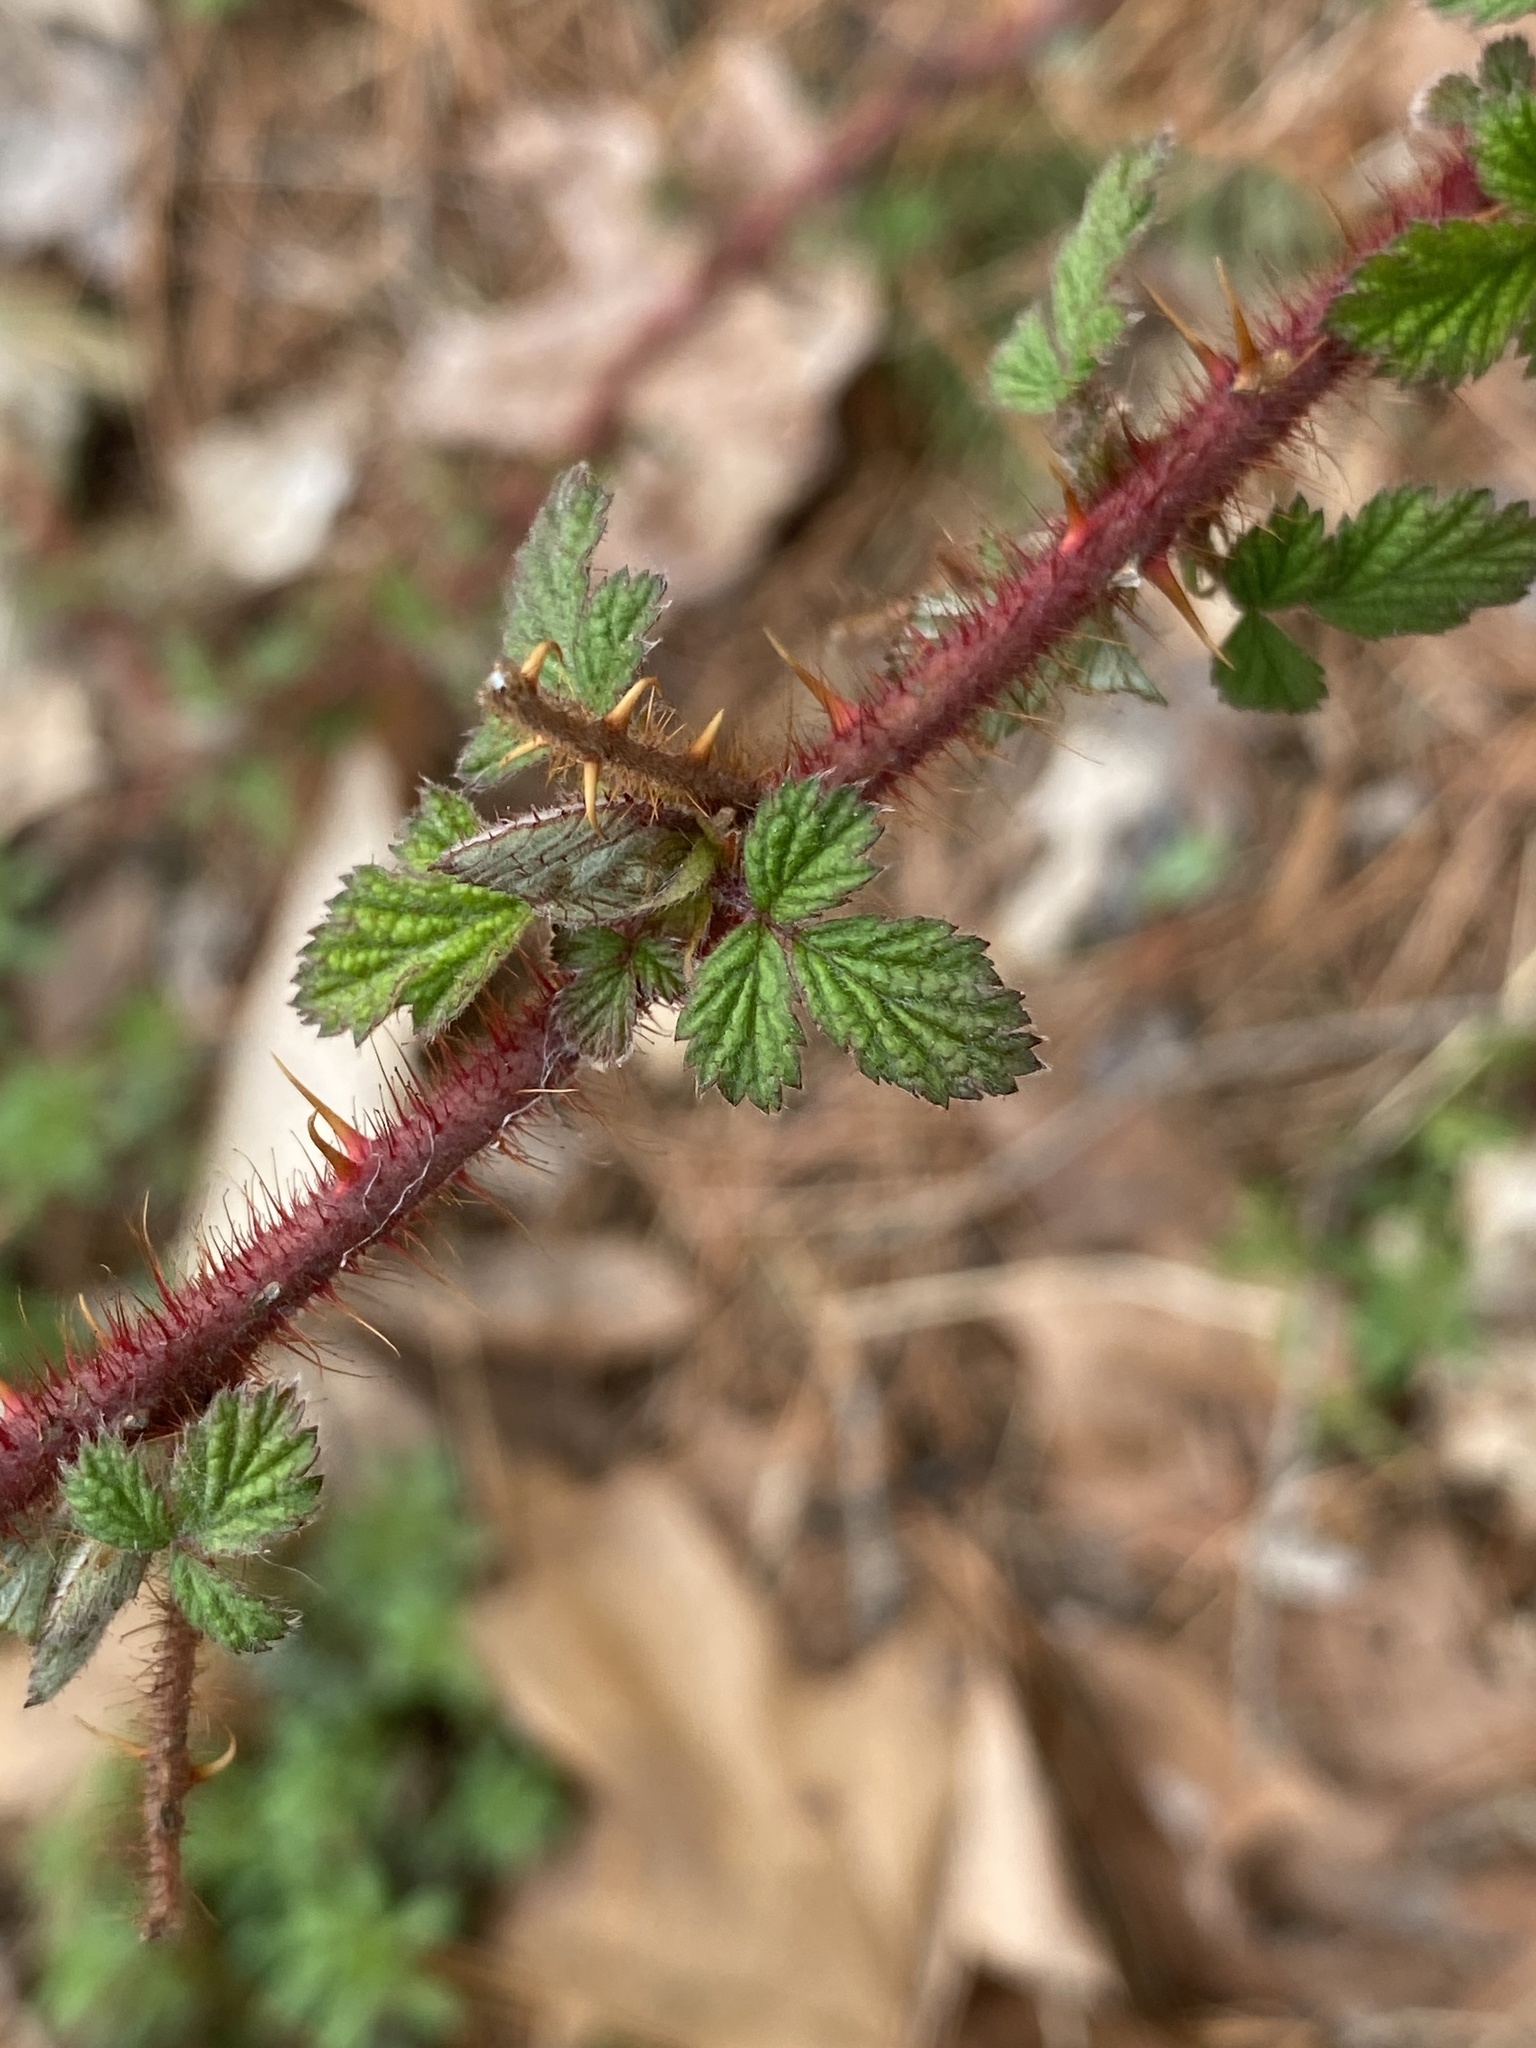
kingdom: Plantae
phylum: Tracheophyta
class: Magnoliopsida
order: Rosales
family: Rosaceae
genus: Rubus
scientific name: Rubus phoenicolasius
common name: Japanese wineberry
